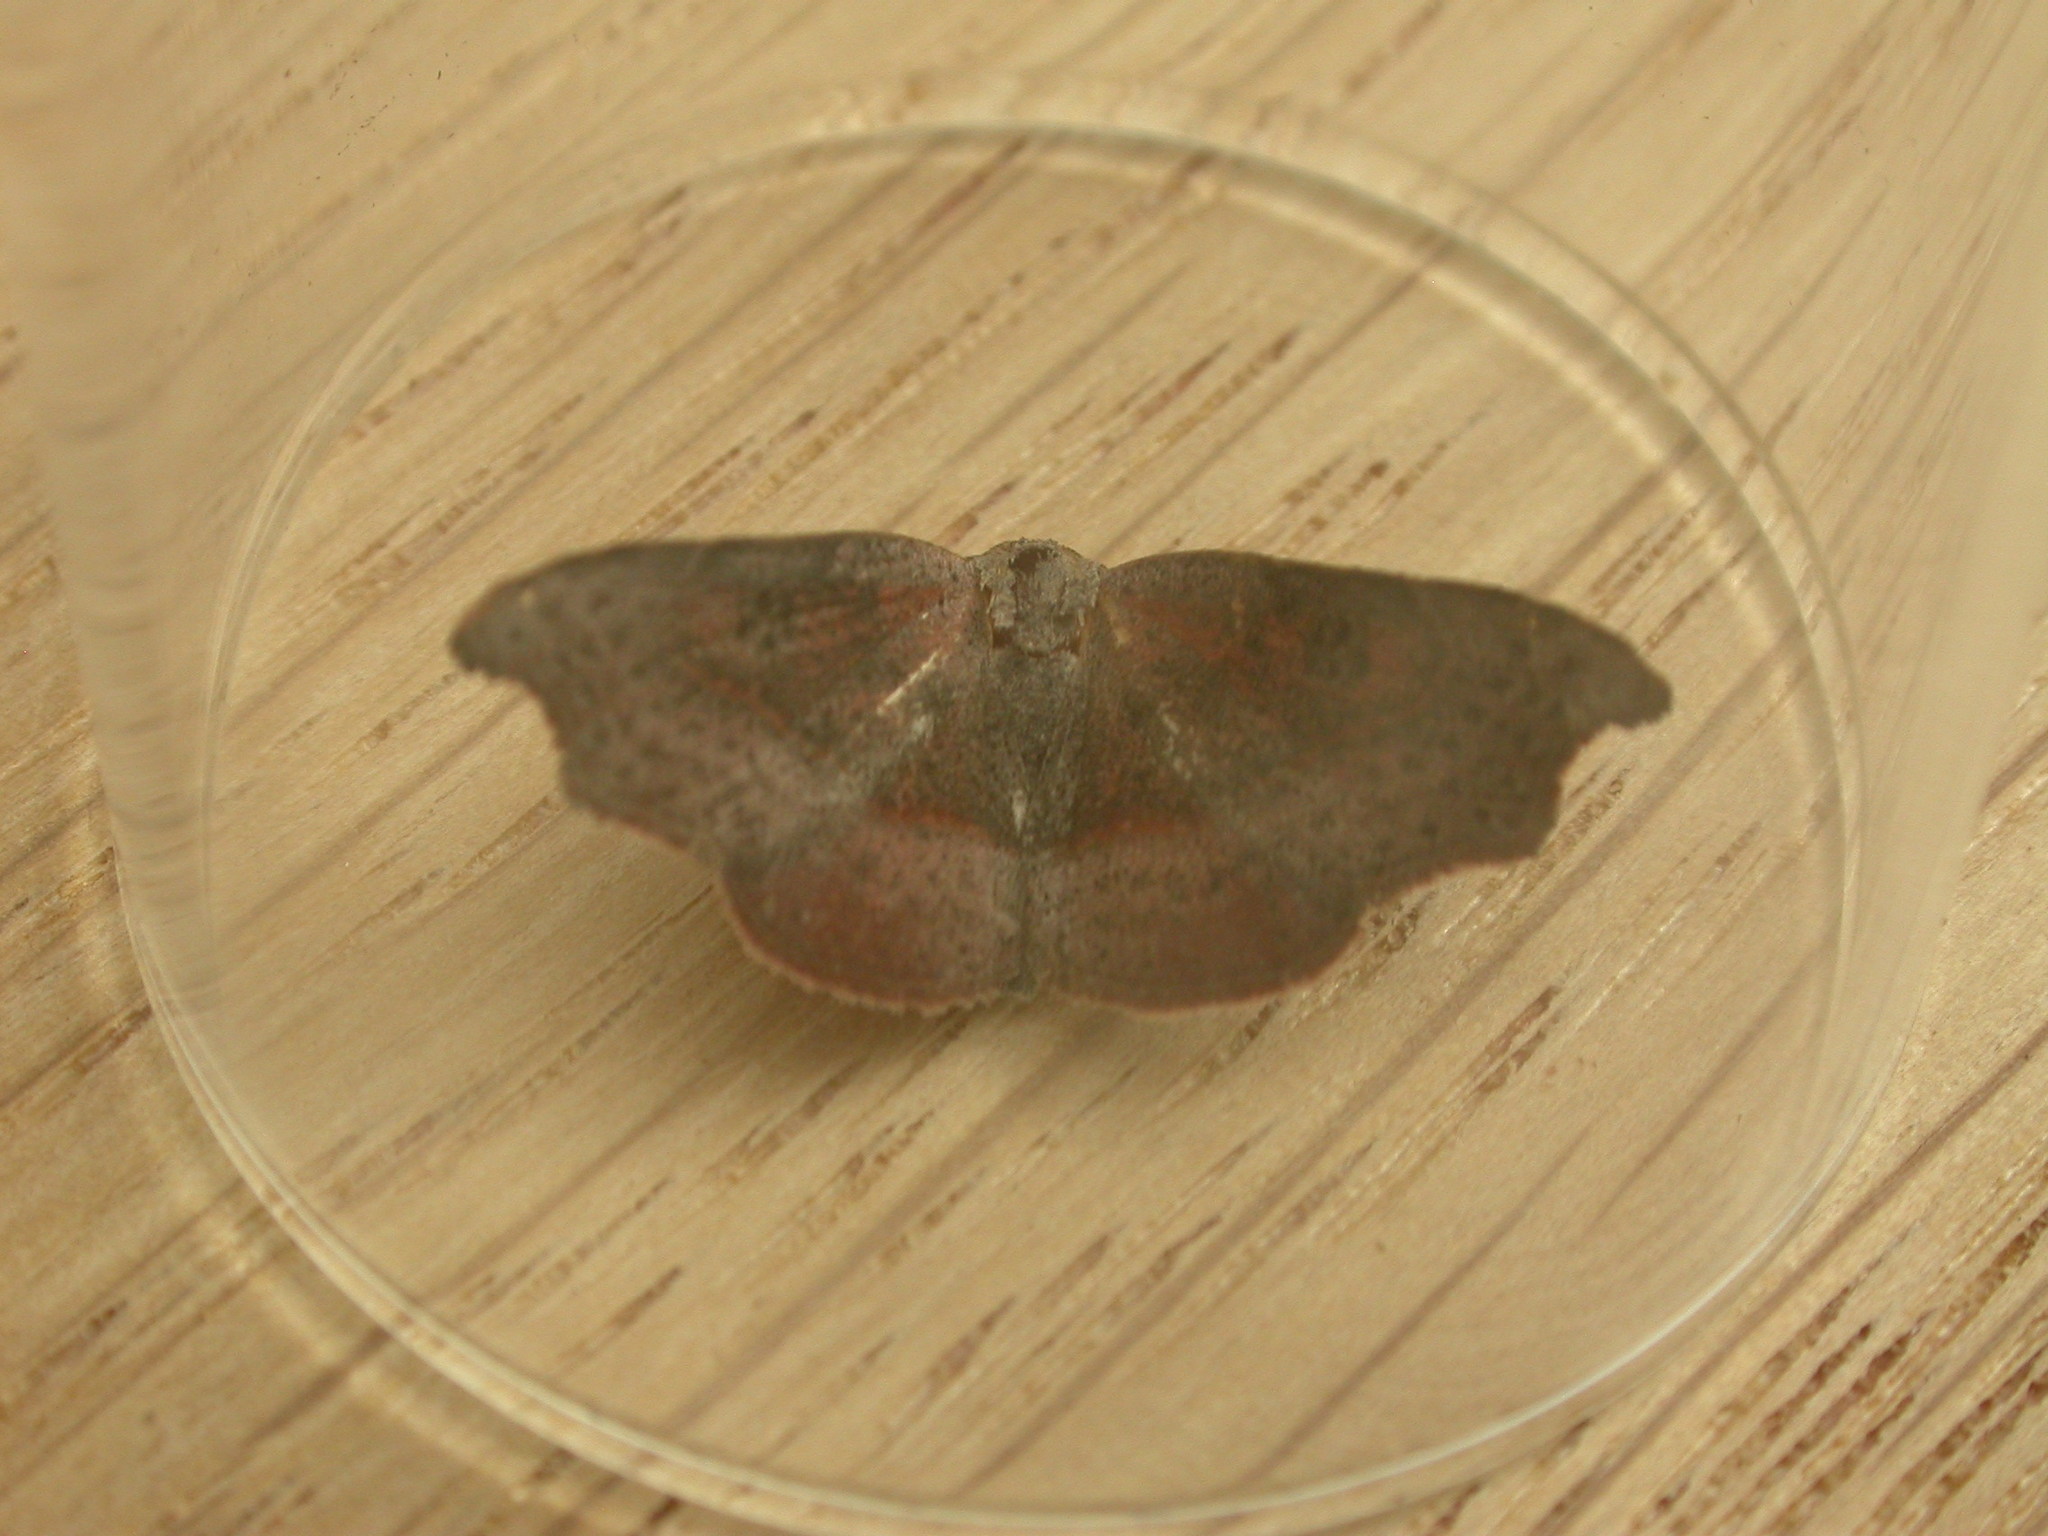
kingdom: Animalia
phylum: Arthropoda
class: Insecta
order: Lepidoptera
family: Erebidae
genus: Laspeyria
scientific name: Laspeyria concavata
